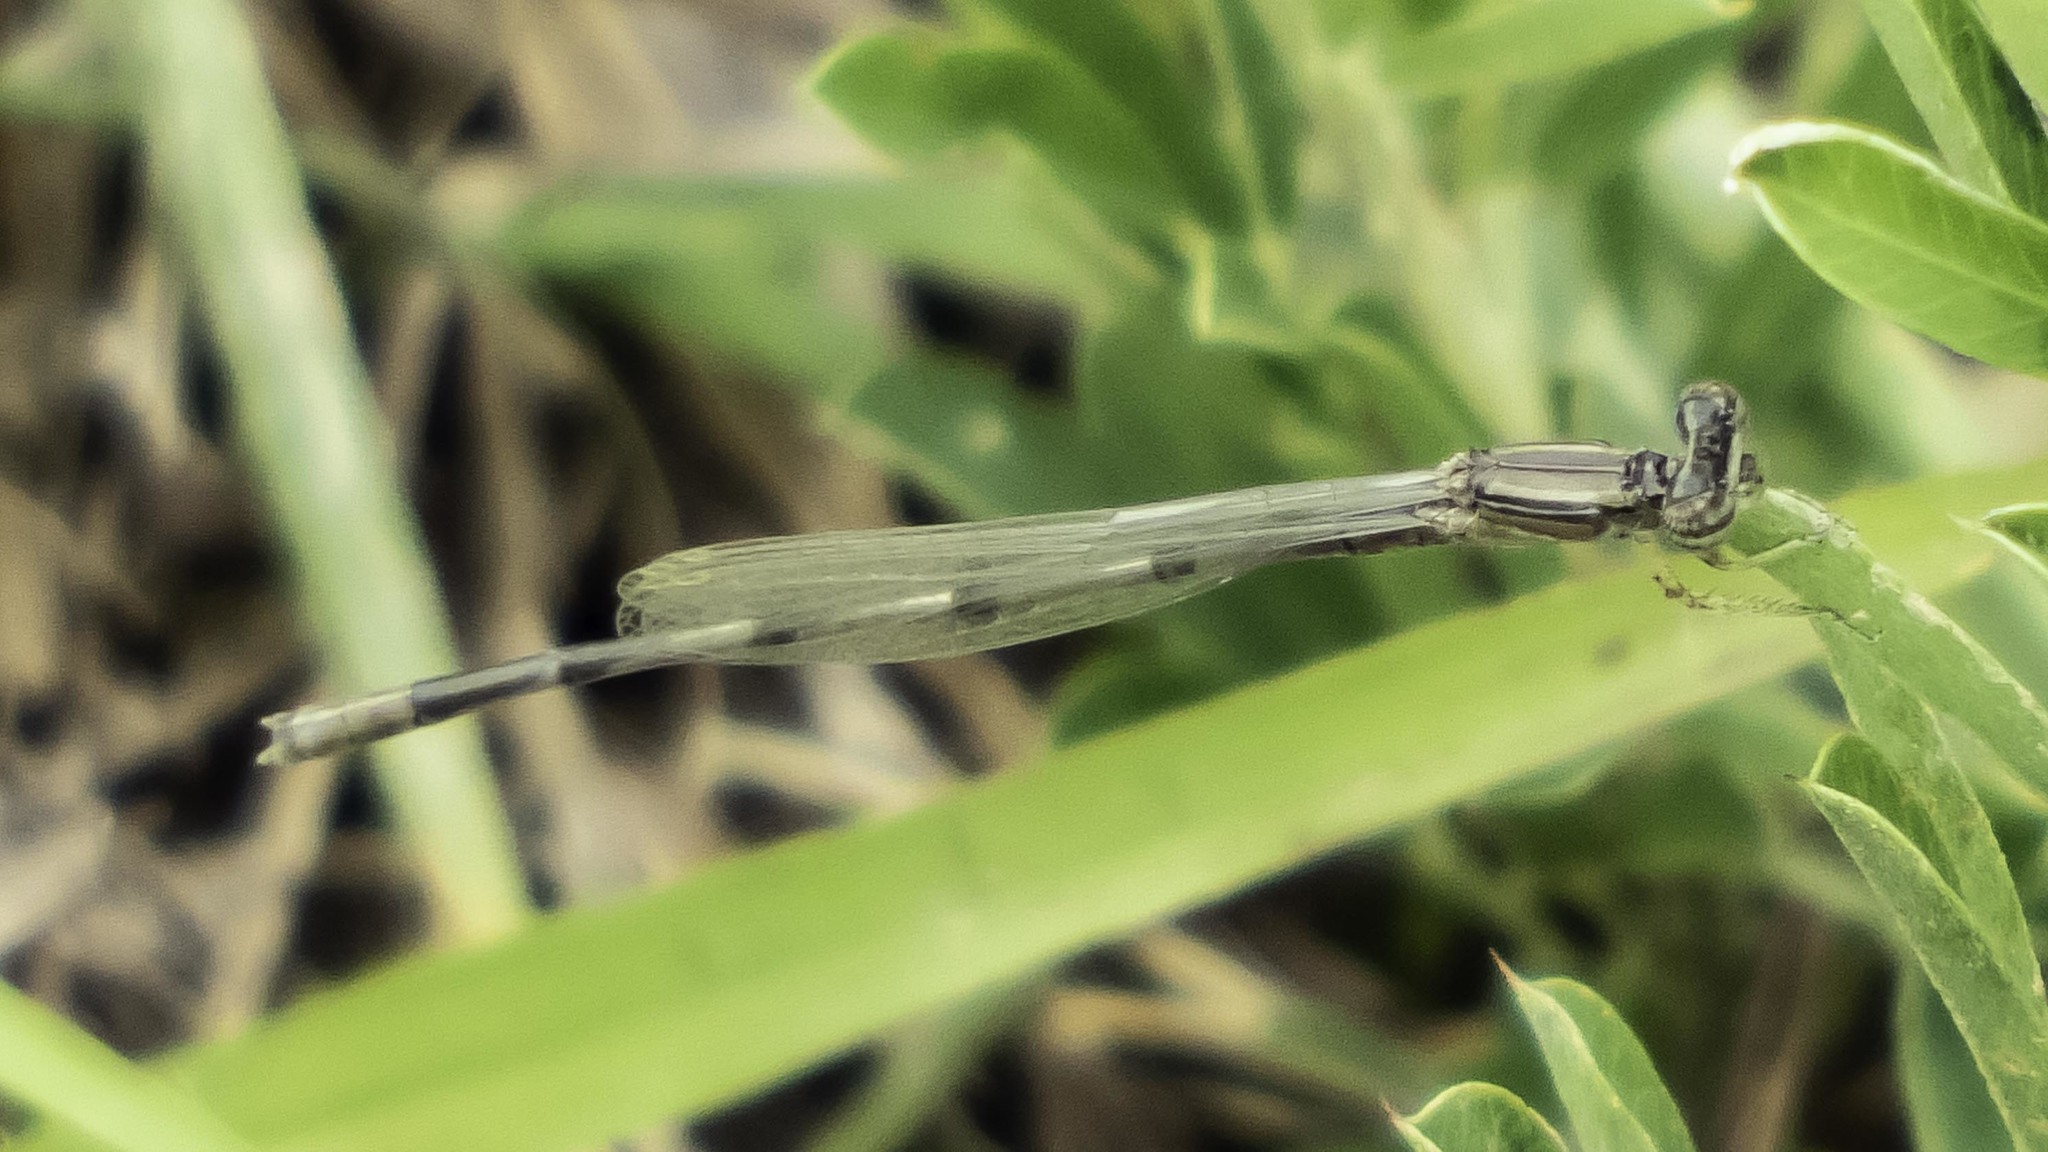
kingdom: Animalia
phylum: Arthropoda
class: Insecta
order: Odonata
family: Coenagrionidae
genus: Enallagma
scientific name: Enallagma basidens
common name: Double-striped bluet
